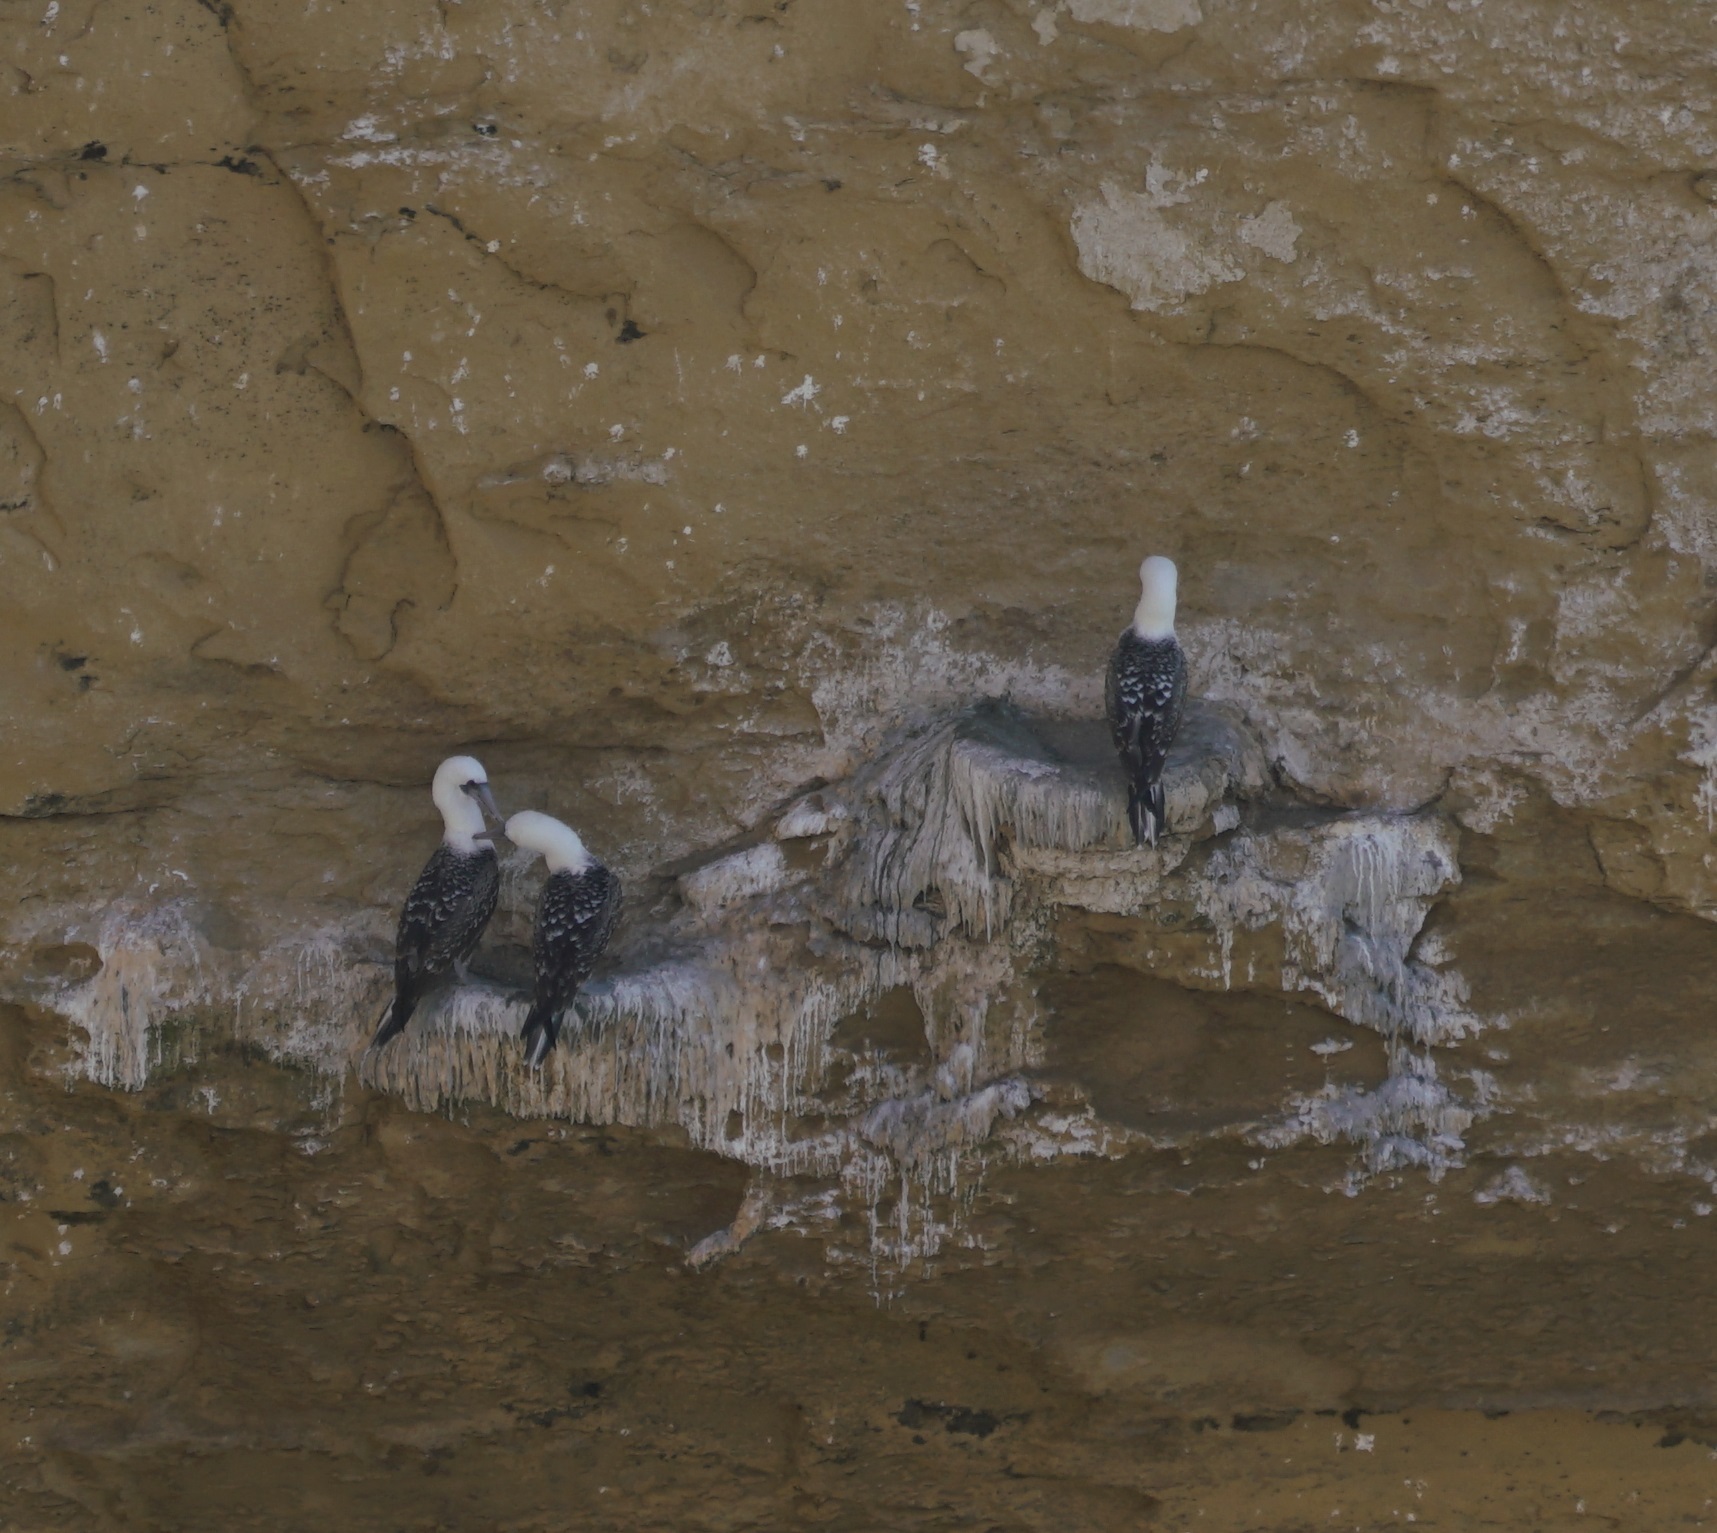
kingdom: Animalia
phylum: Chordata
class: Aves
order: Suliformes
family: Sulidae
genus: Sula
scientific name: Sula variegata
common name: Peruvian booby
